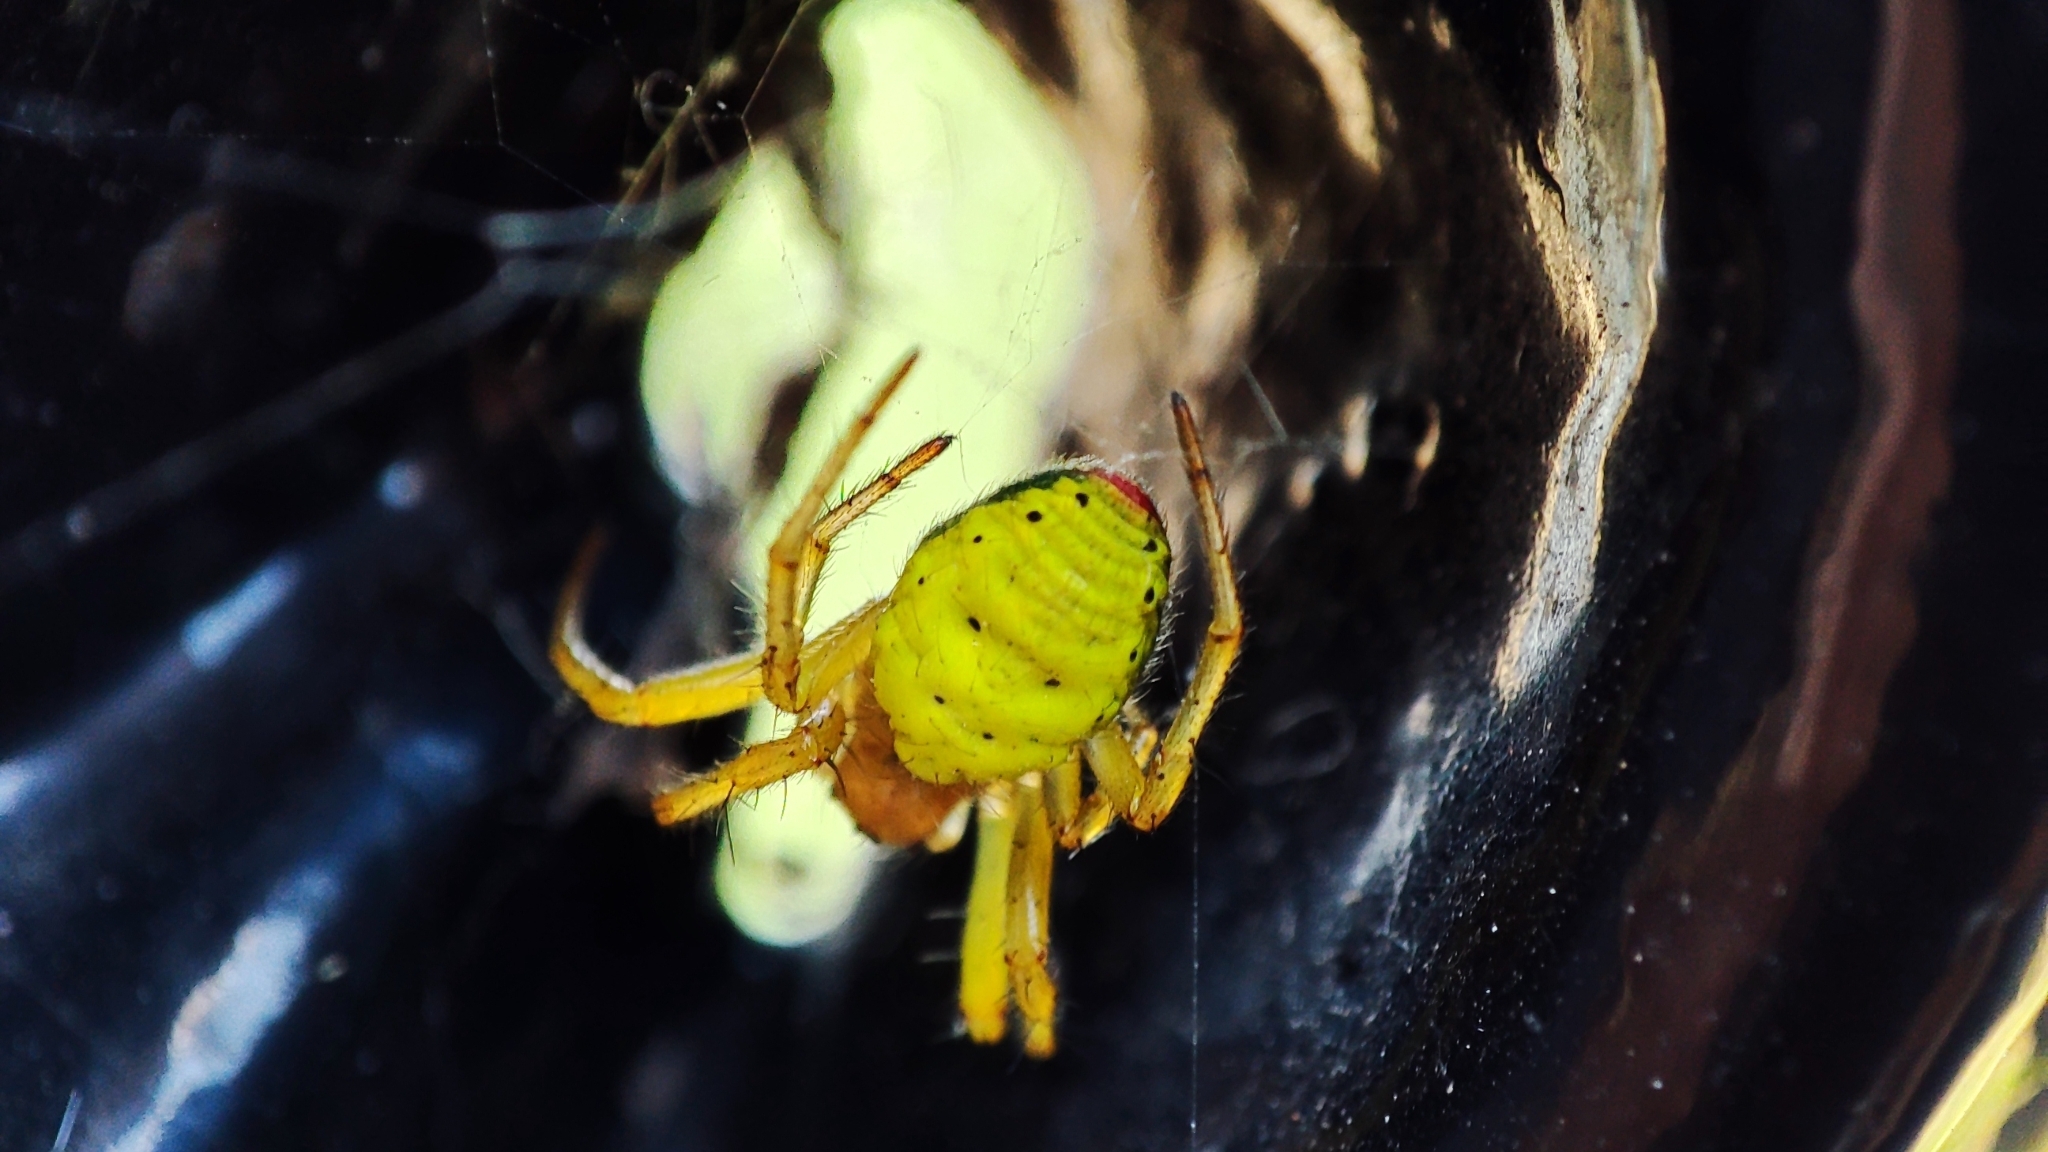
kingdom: Animalia
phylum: Arthropoda
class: Arachnida
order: Araneae
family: Araneidae
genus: Araniella
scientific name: Araniella
